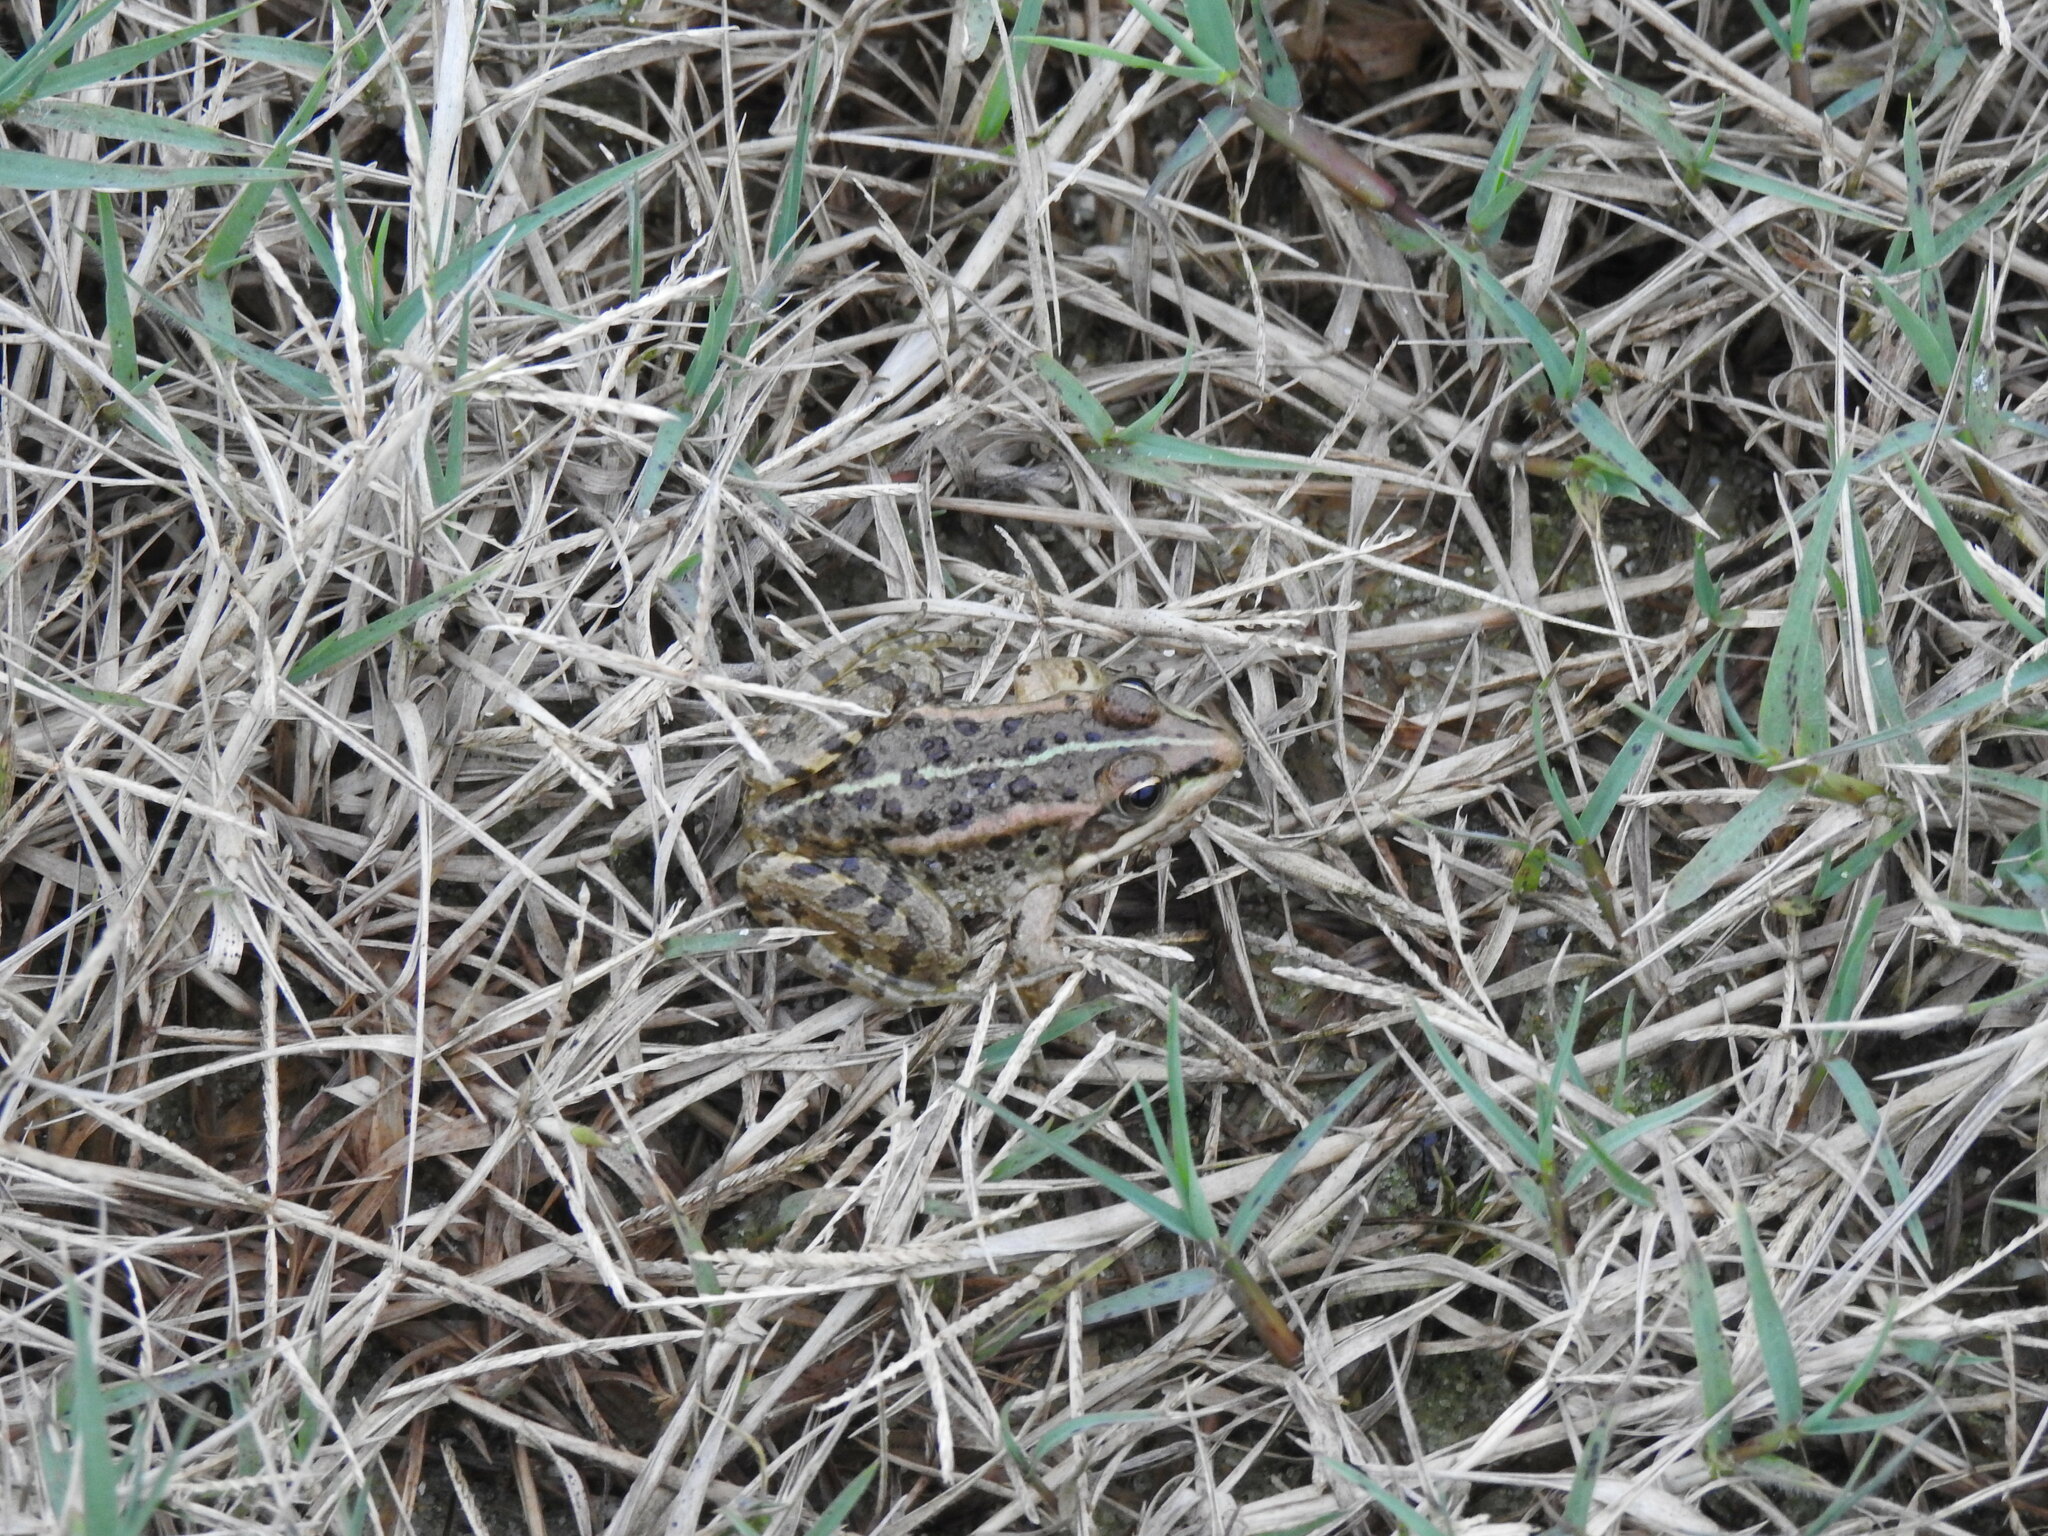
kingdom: Animalia
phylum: Chordata
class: Amphibia
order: Anura
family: Ranidae
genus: Pelophylax
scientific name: Pelophylax perezi
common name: Perez's frog
